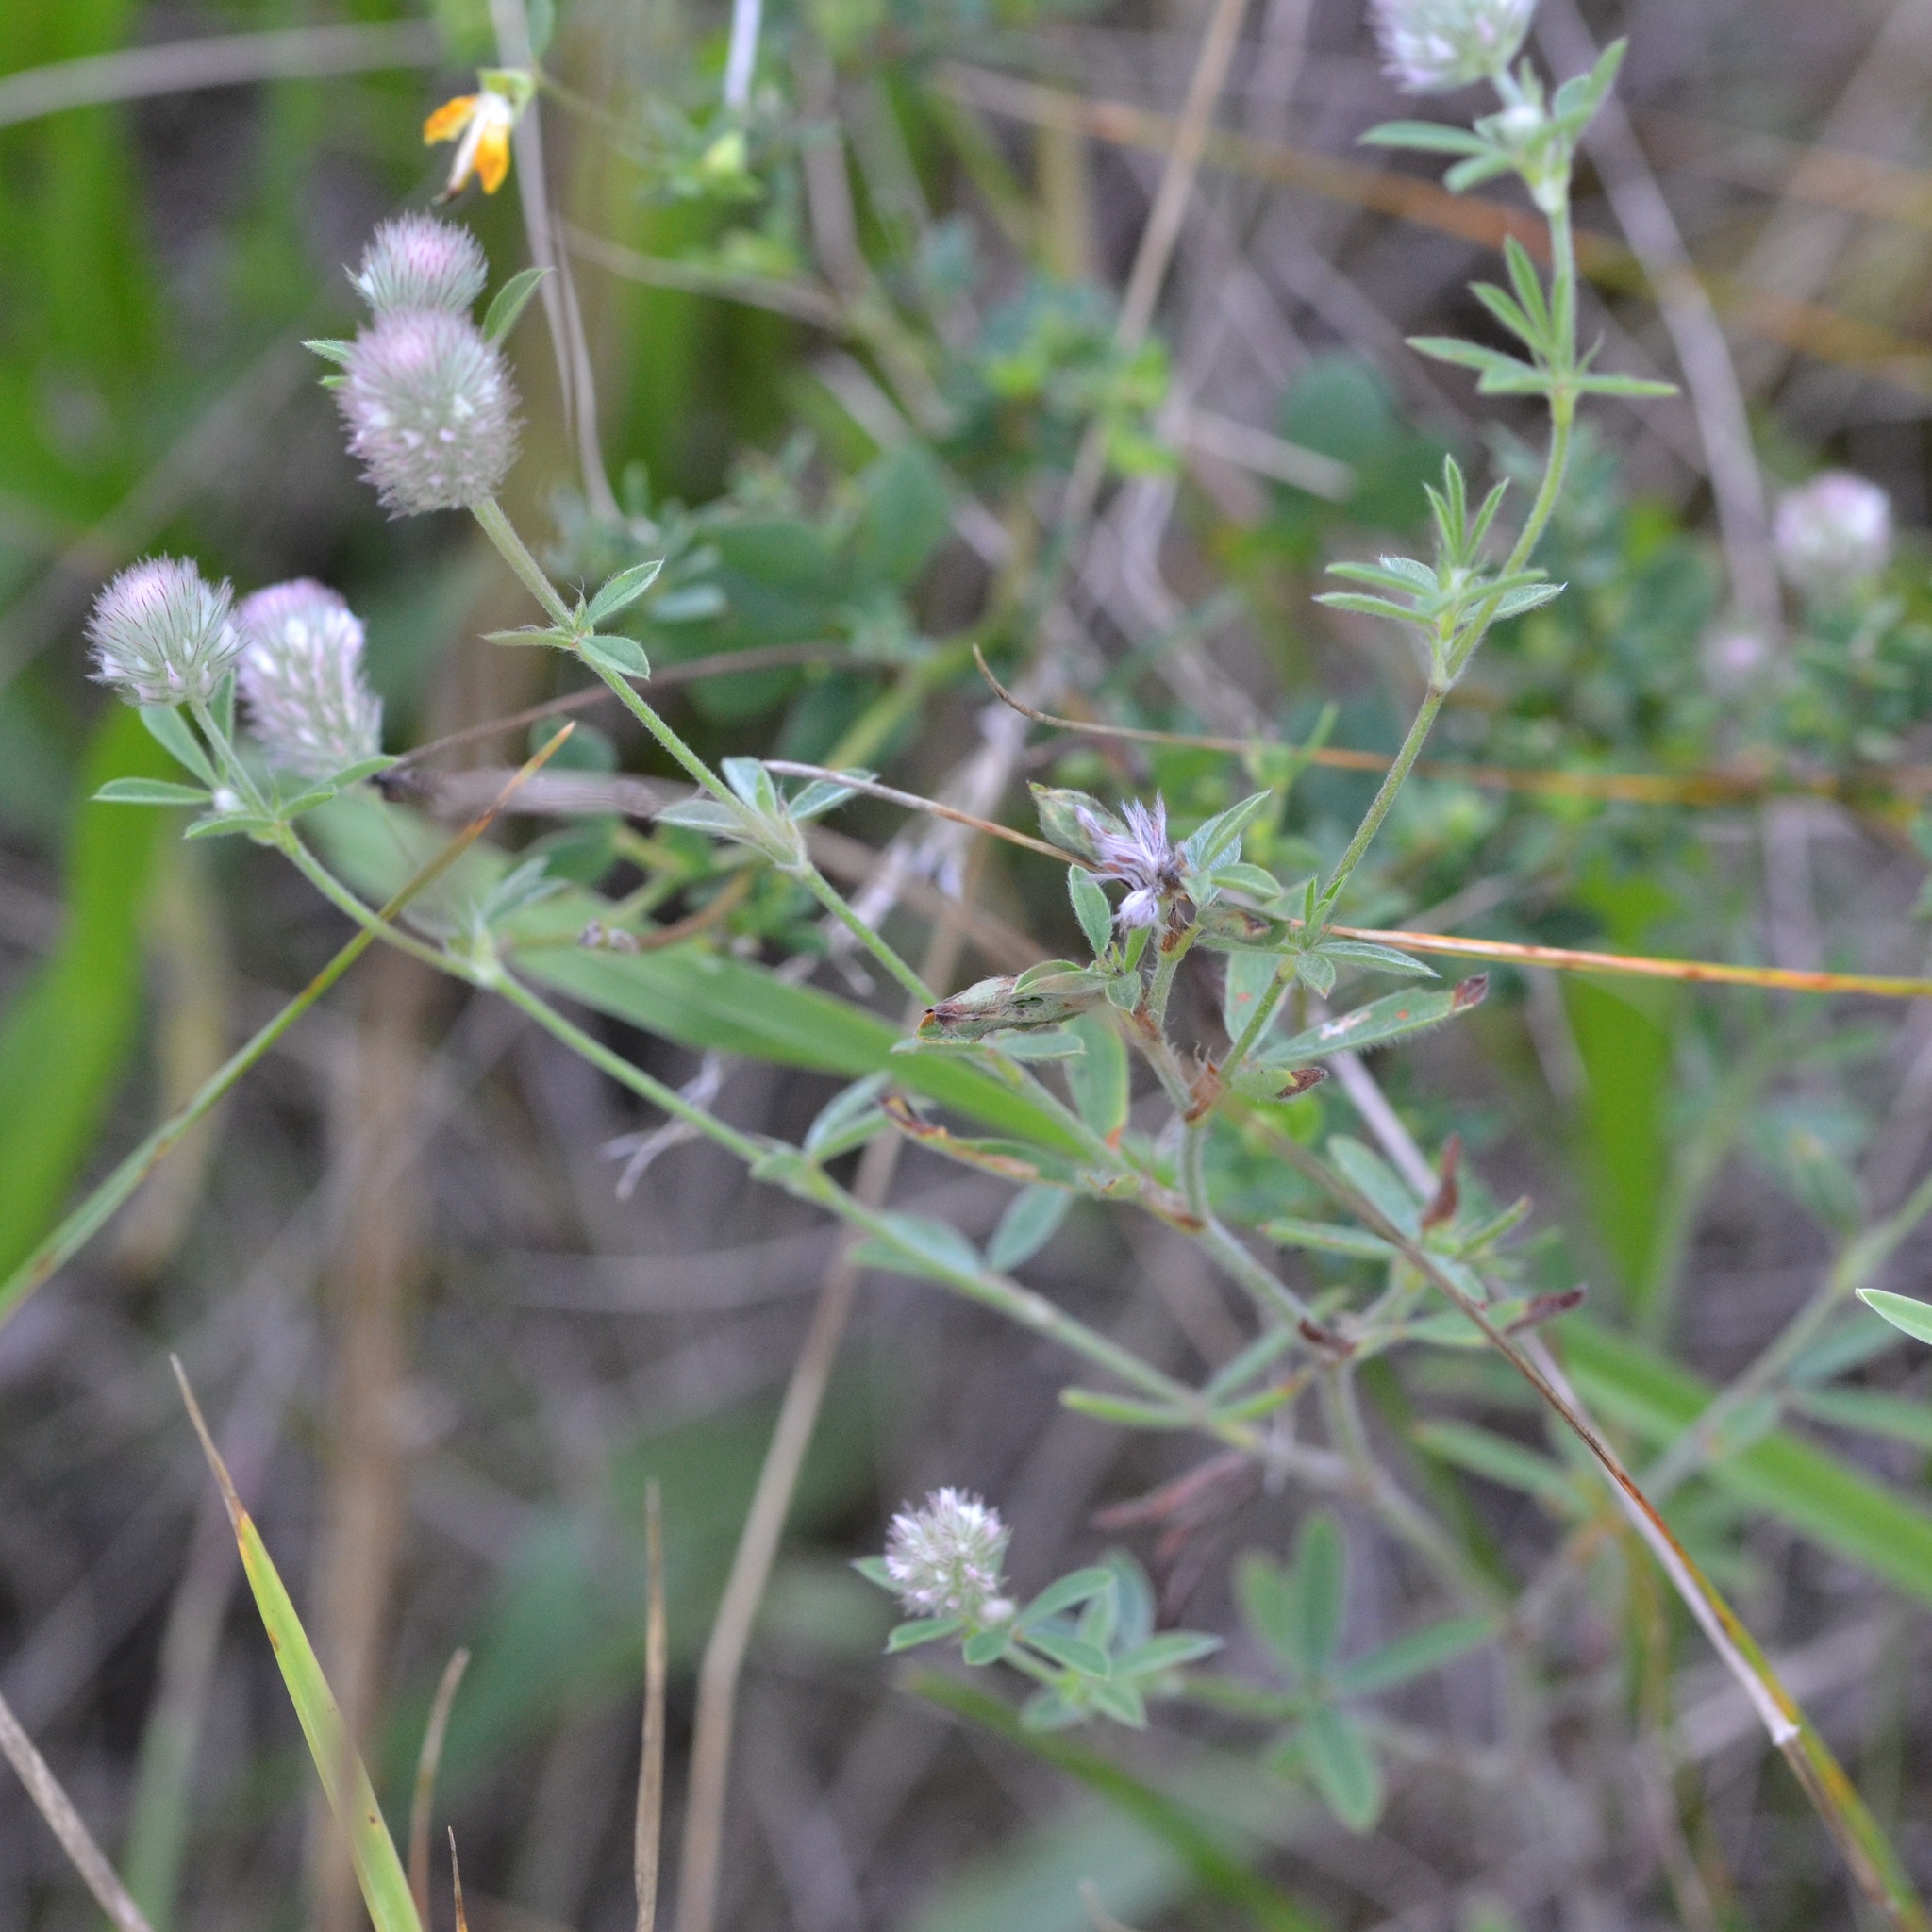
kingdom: Plantae
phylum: Tracheophyta
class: Magnoliopsida
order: Fabales
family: Fabaceae
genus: Trifolium
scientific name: Trifolium arvense
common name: Hare's-foot clover
